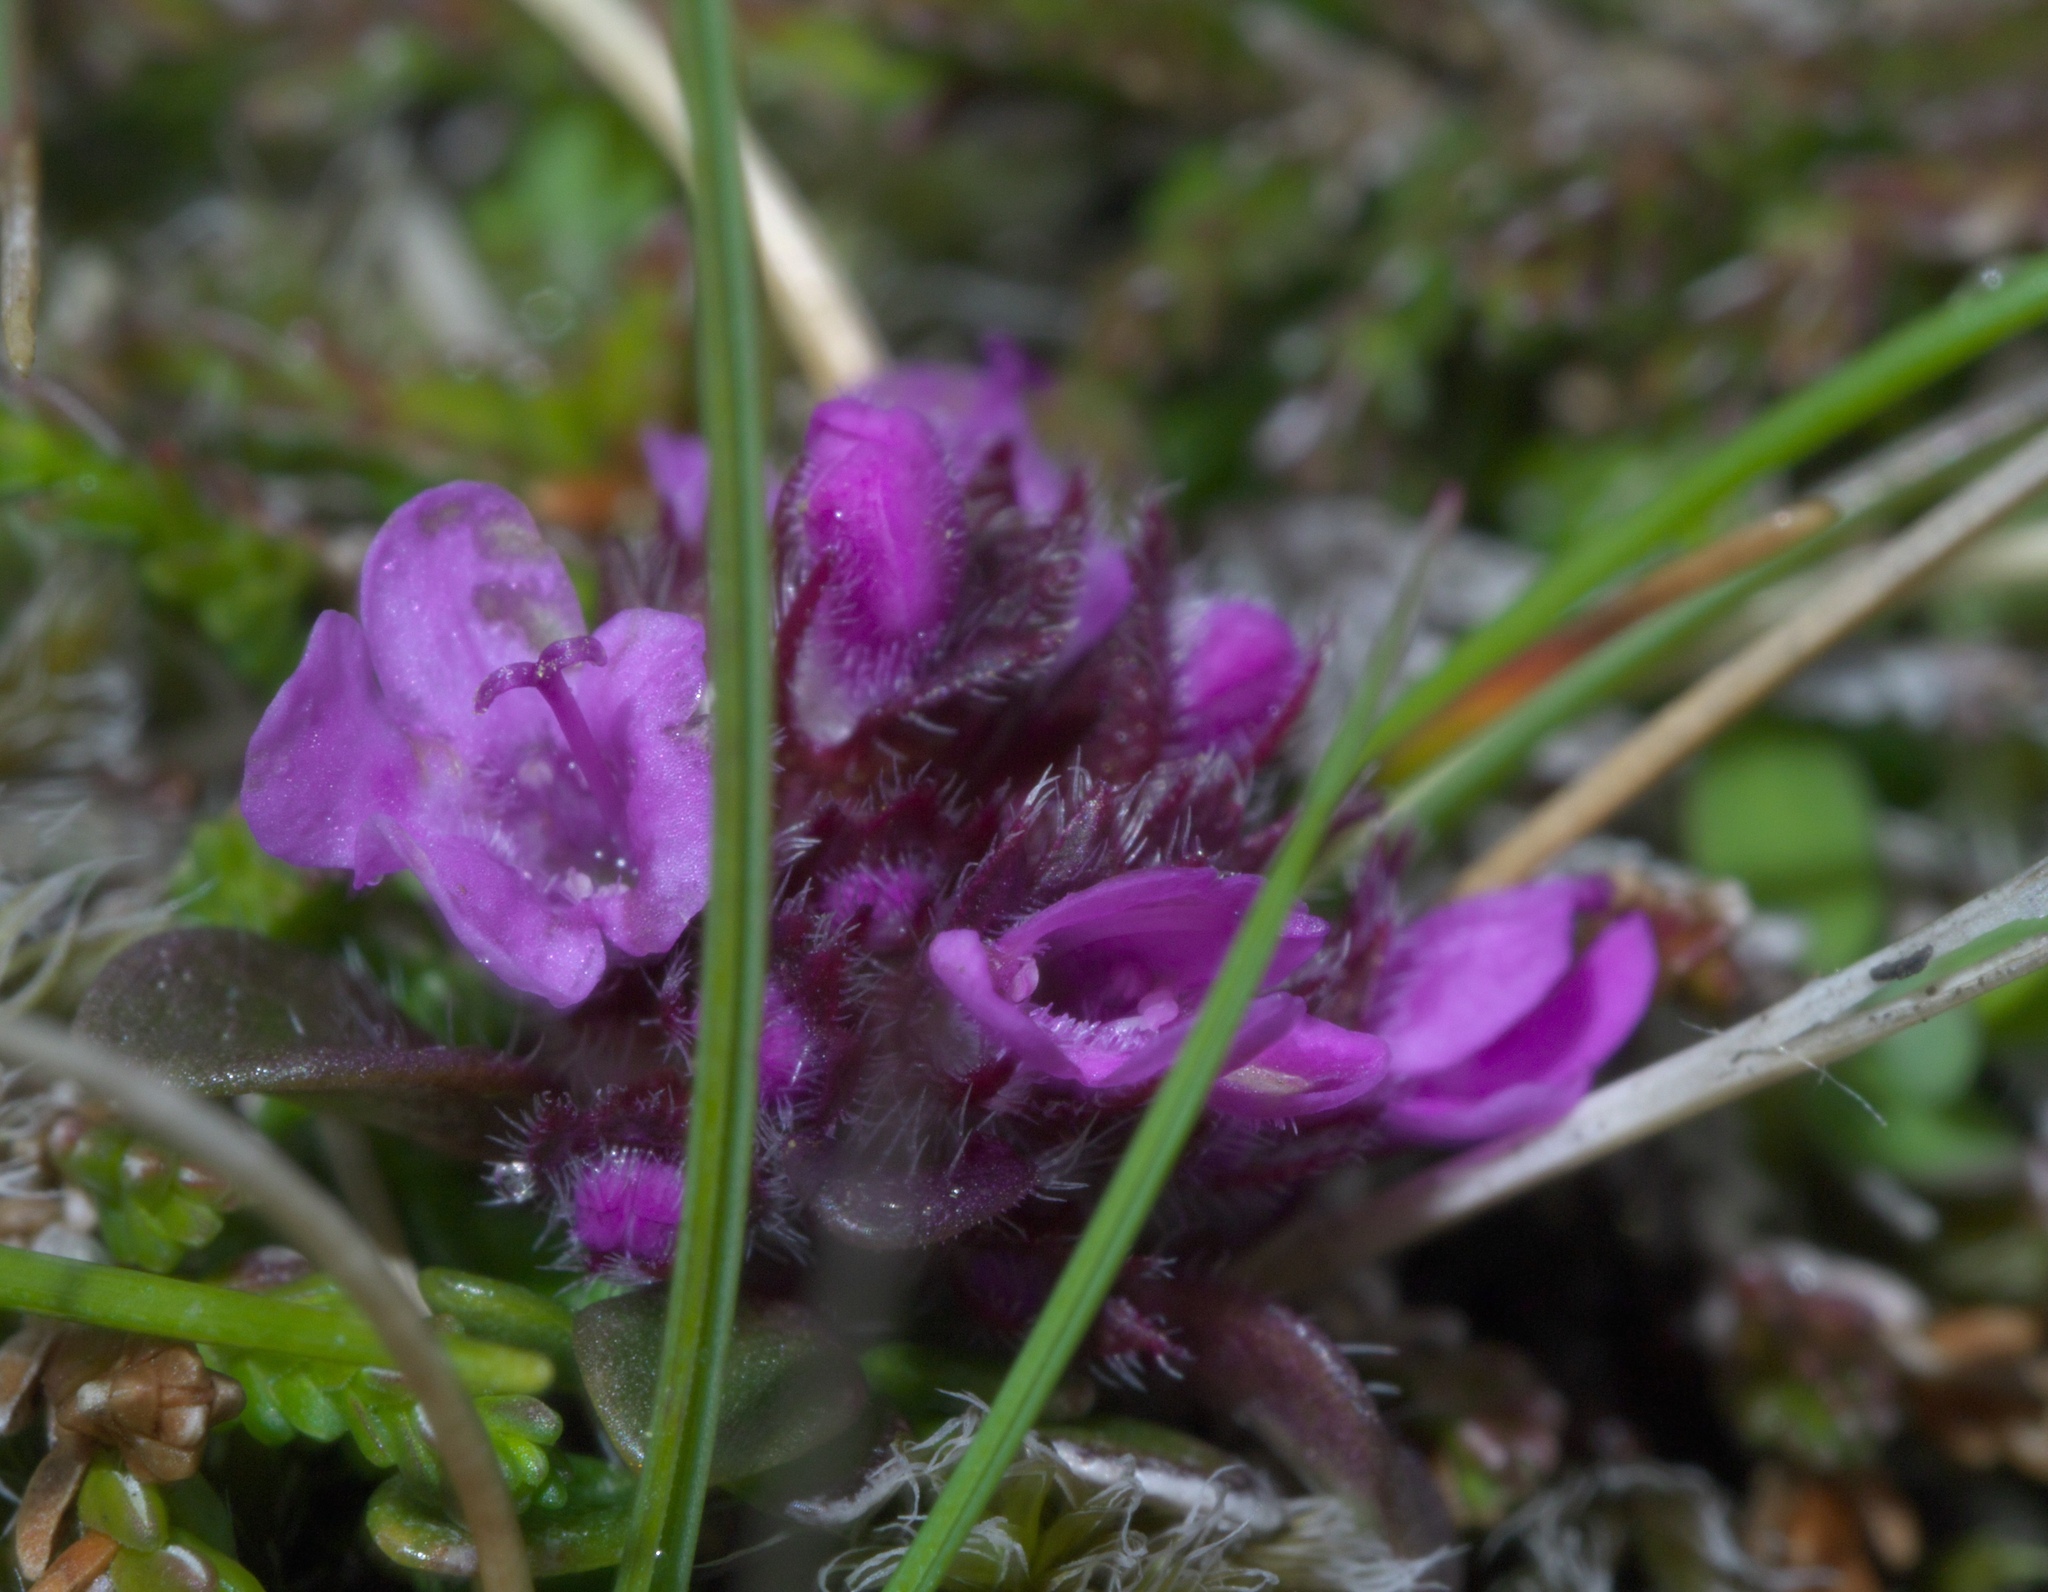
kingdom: Plantae
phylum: Tracheophyta
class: Magnoliopsida
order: Lamiales
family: Lamiaceae
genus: Thymus
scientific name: Thymus praecox
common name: Wild thyme
